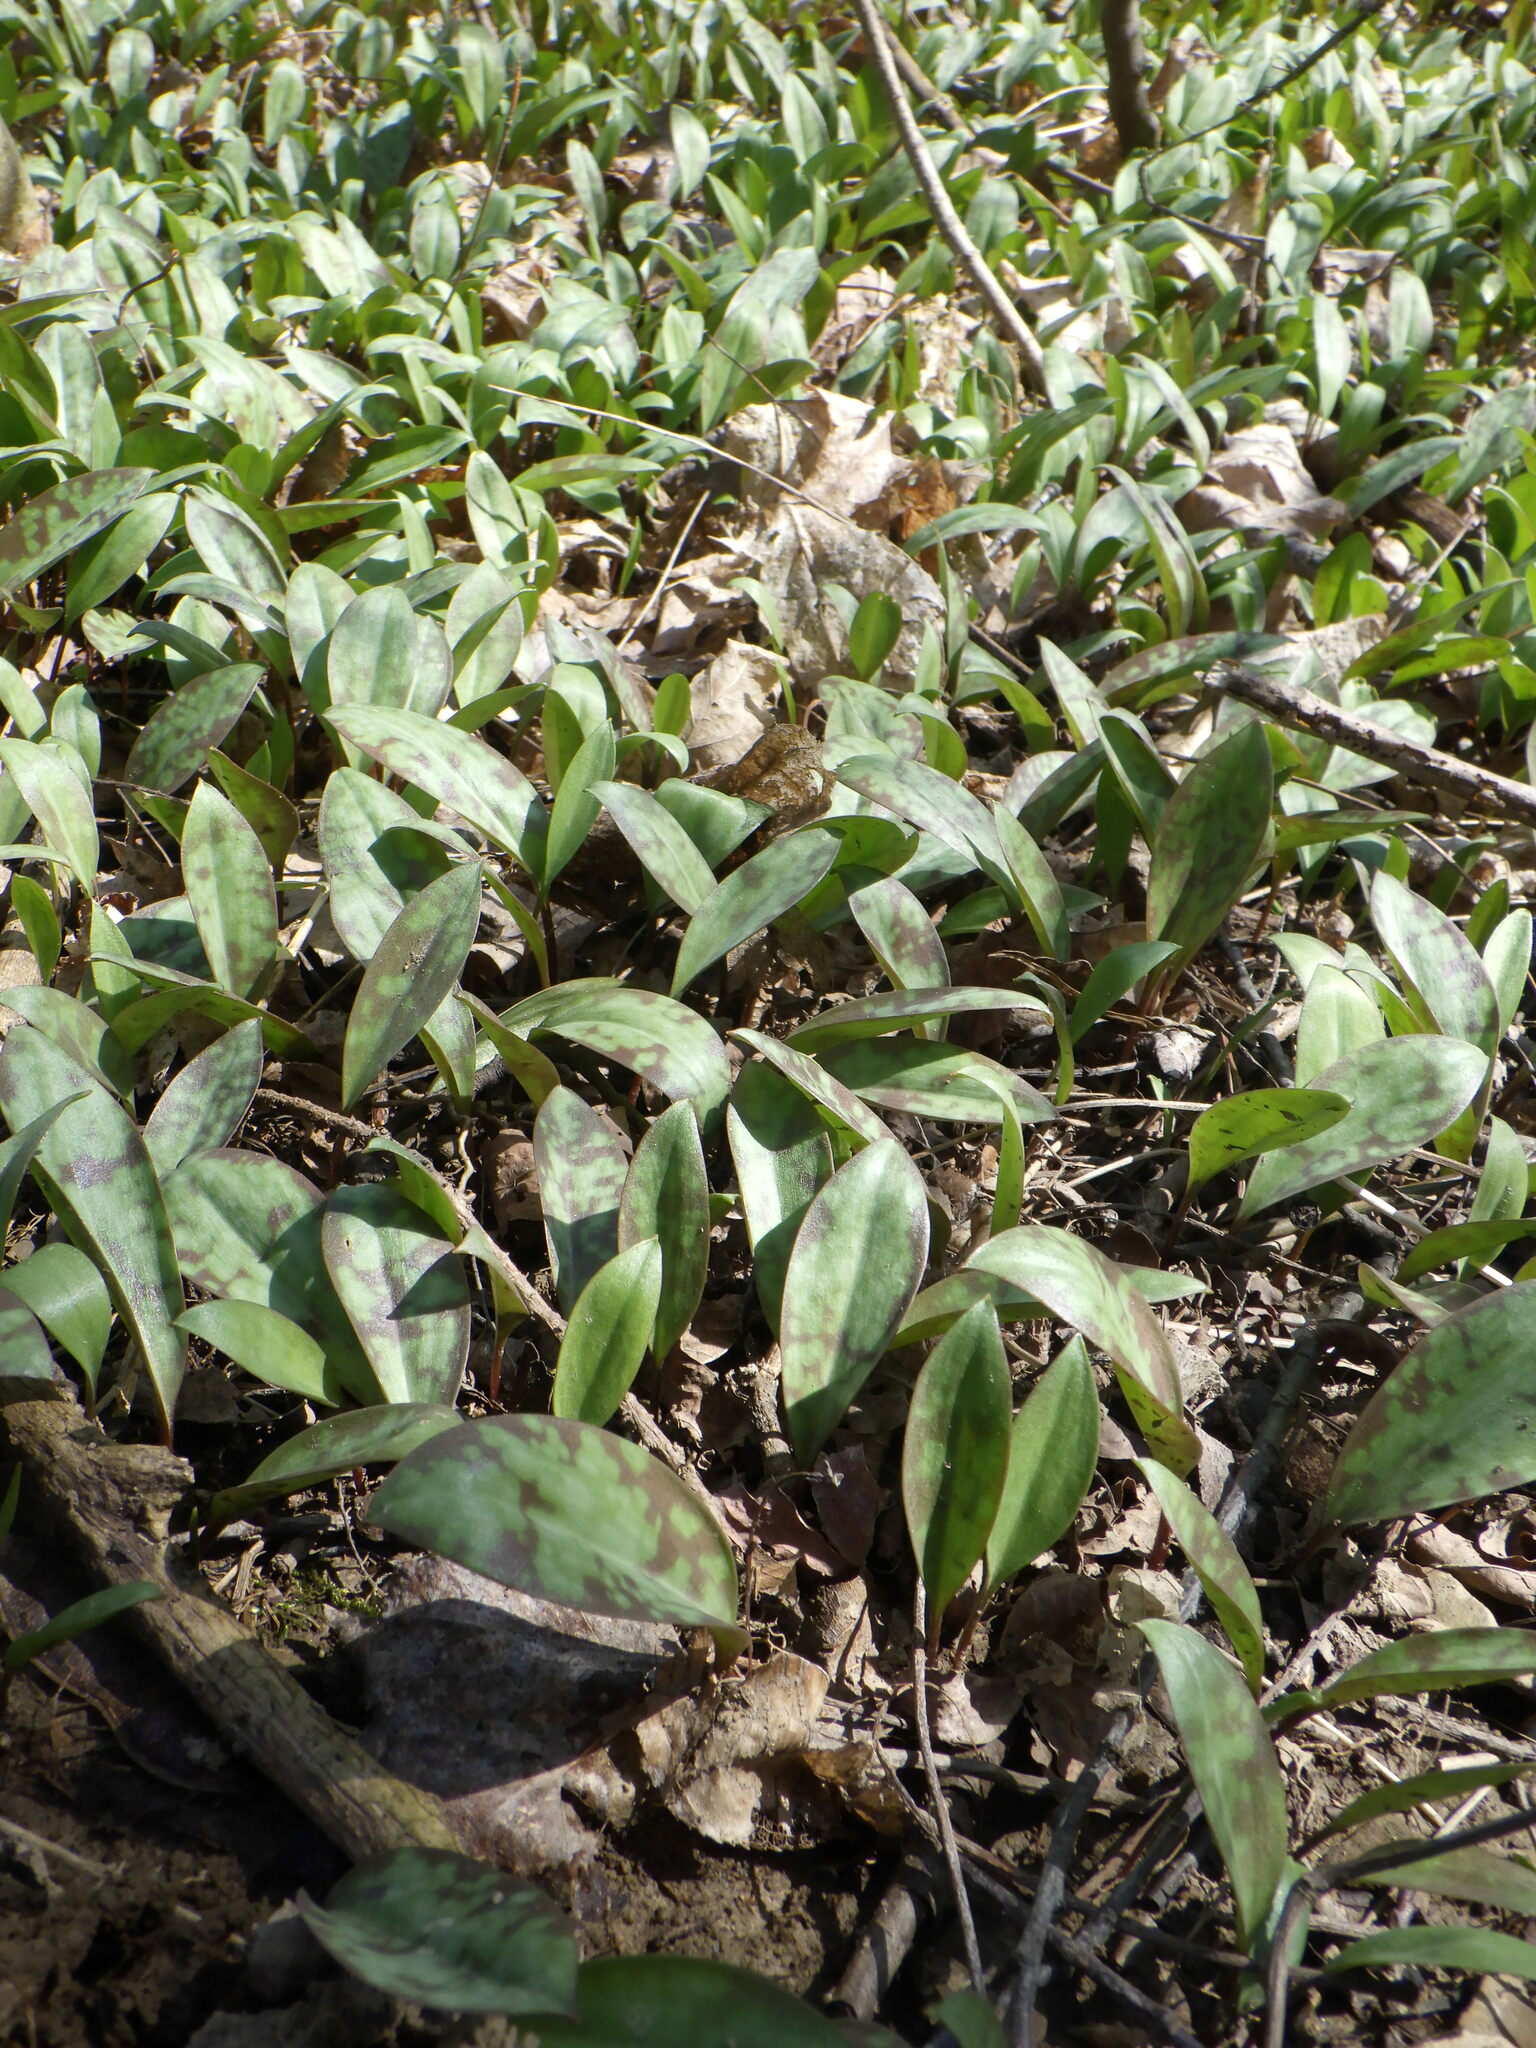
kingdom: Plantae
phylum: Tracheophyta
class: Liliopsida
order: Liliales
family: Liliaceae
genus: Erythronium
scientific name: Erythronium
